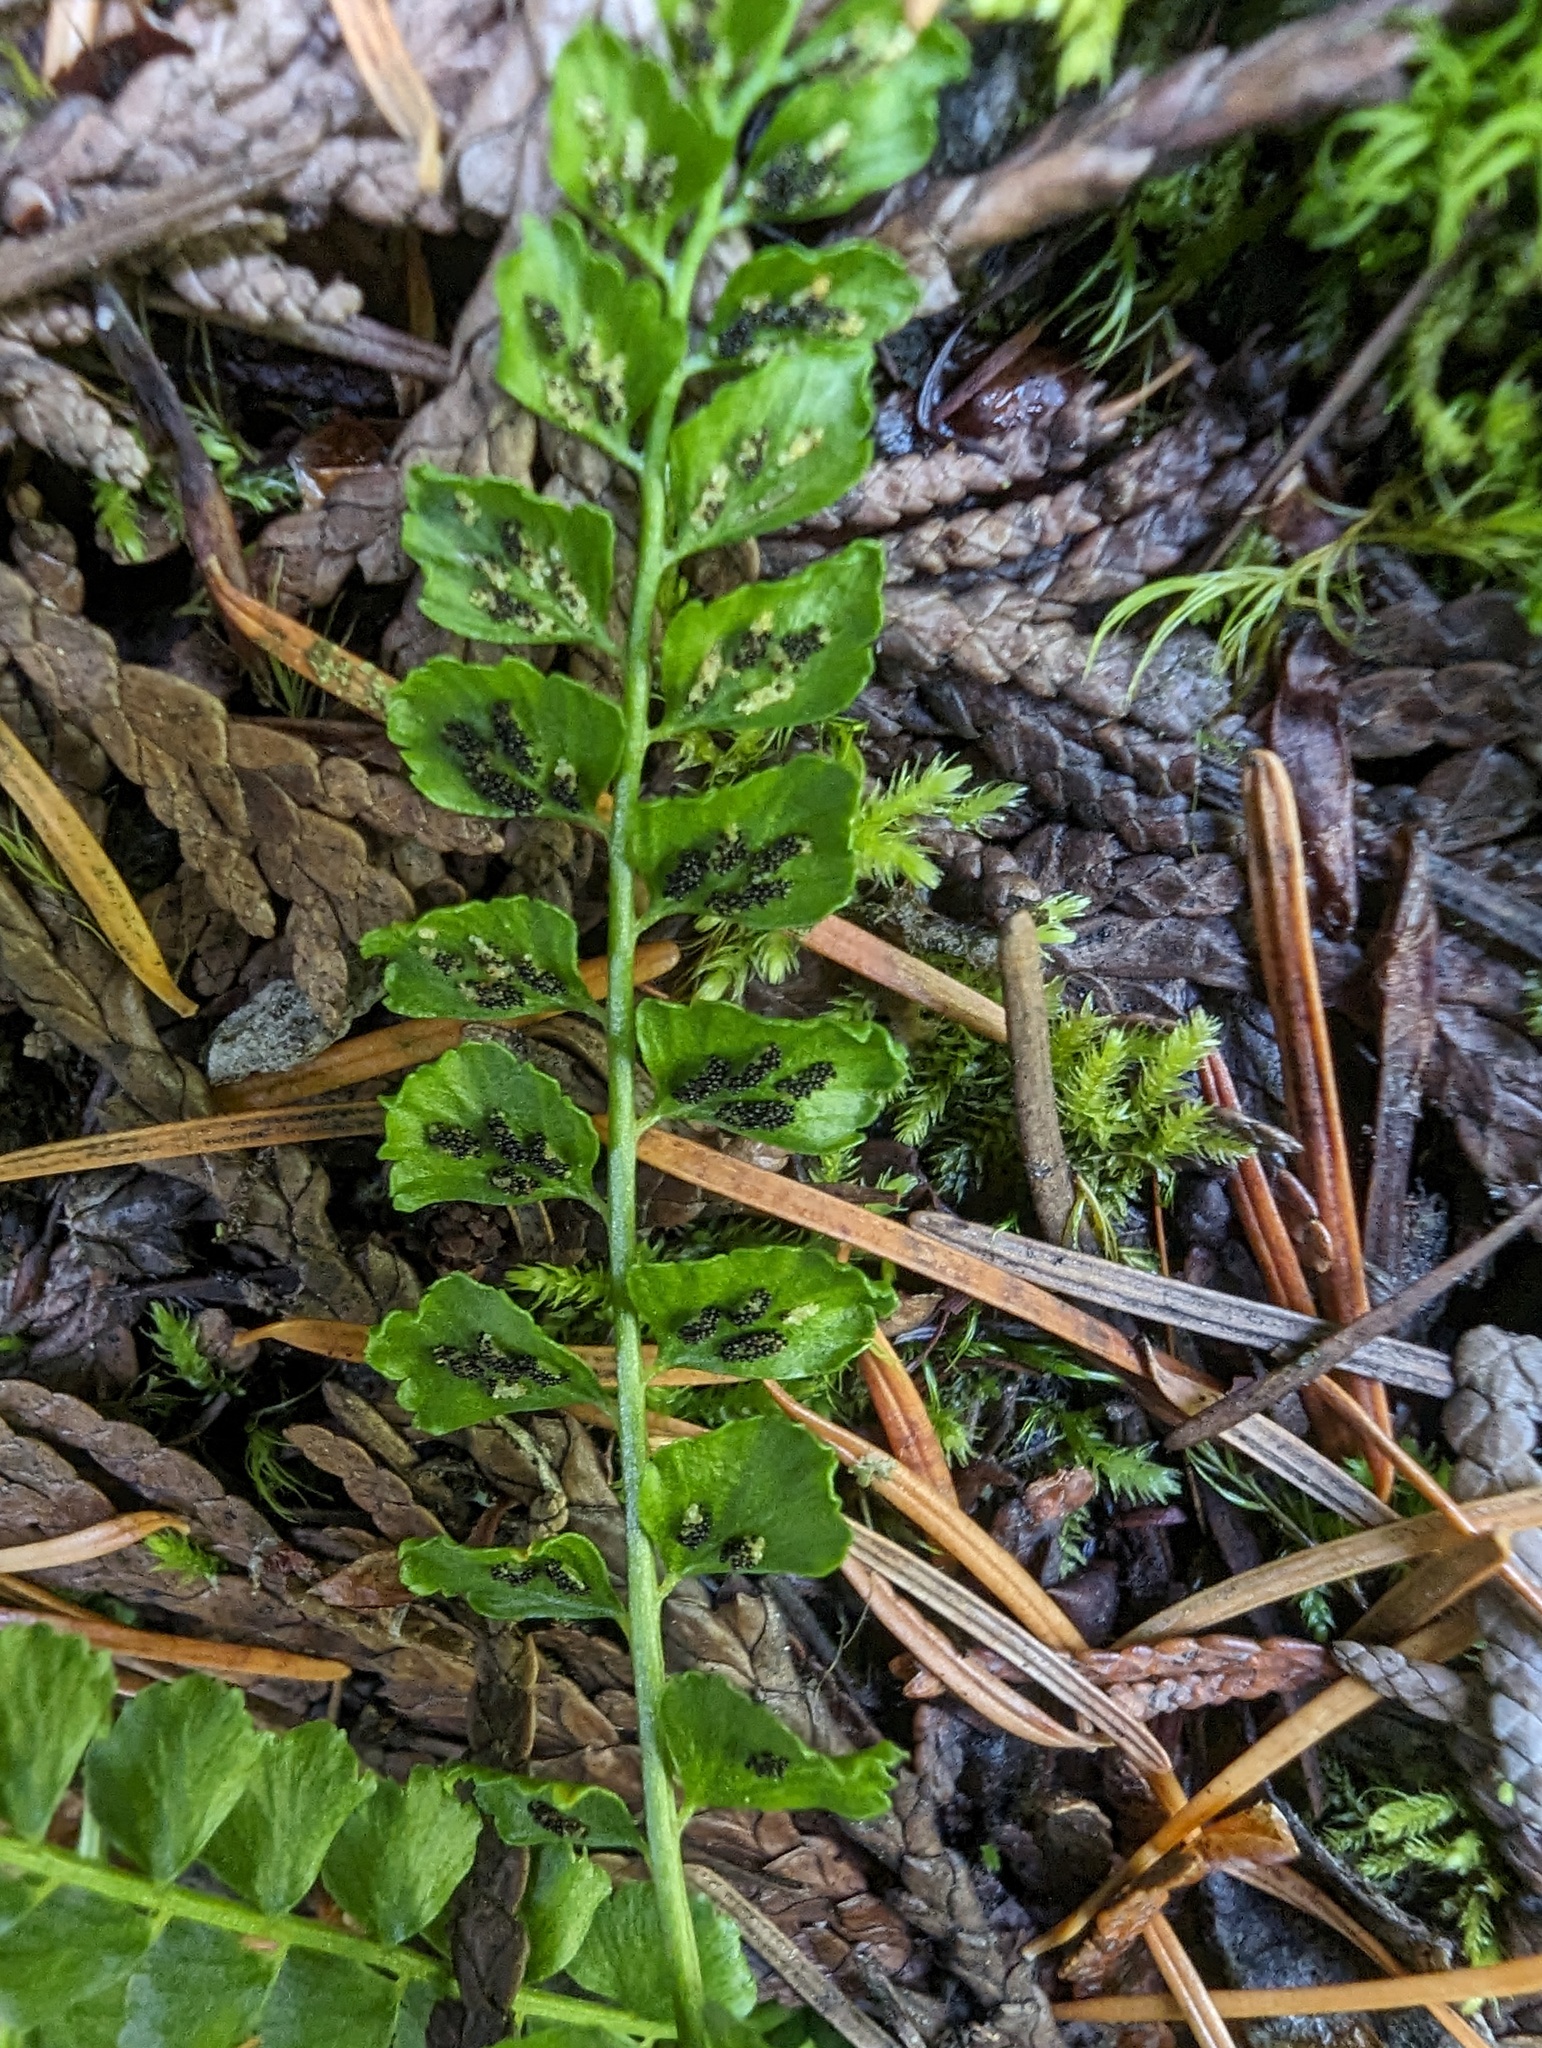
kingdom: Plantae
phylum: Tracheophyta
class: Polypodiopsida
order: Polypodiales
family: Aspleniaceae
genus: Asplenium
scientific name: Asplenium viride
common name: Green spleenwort
